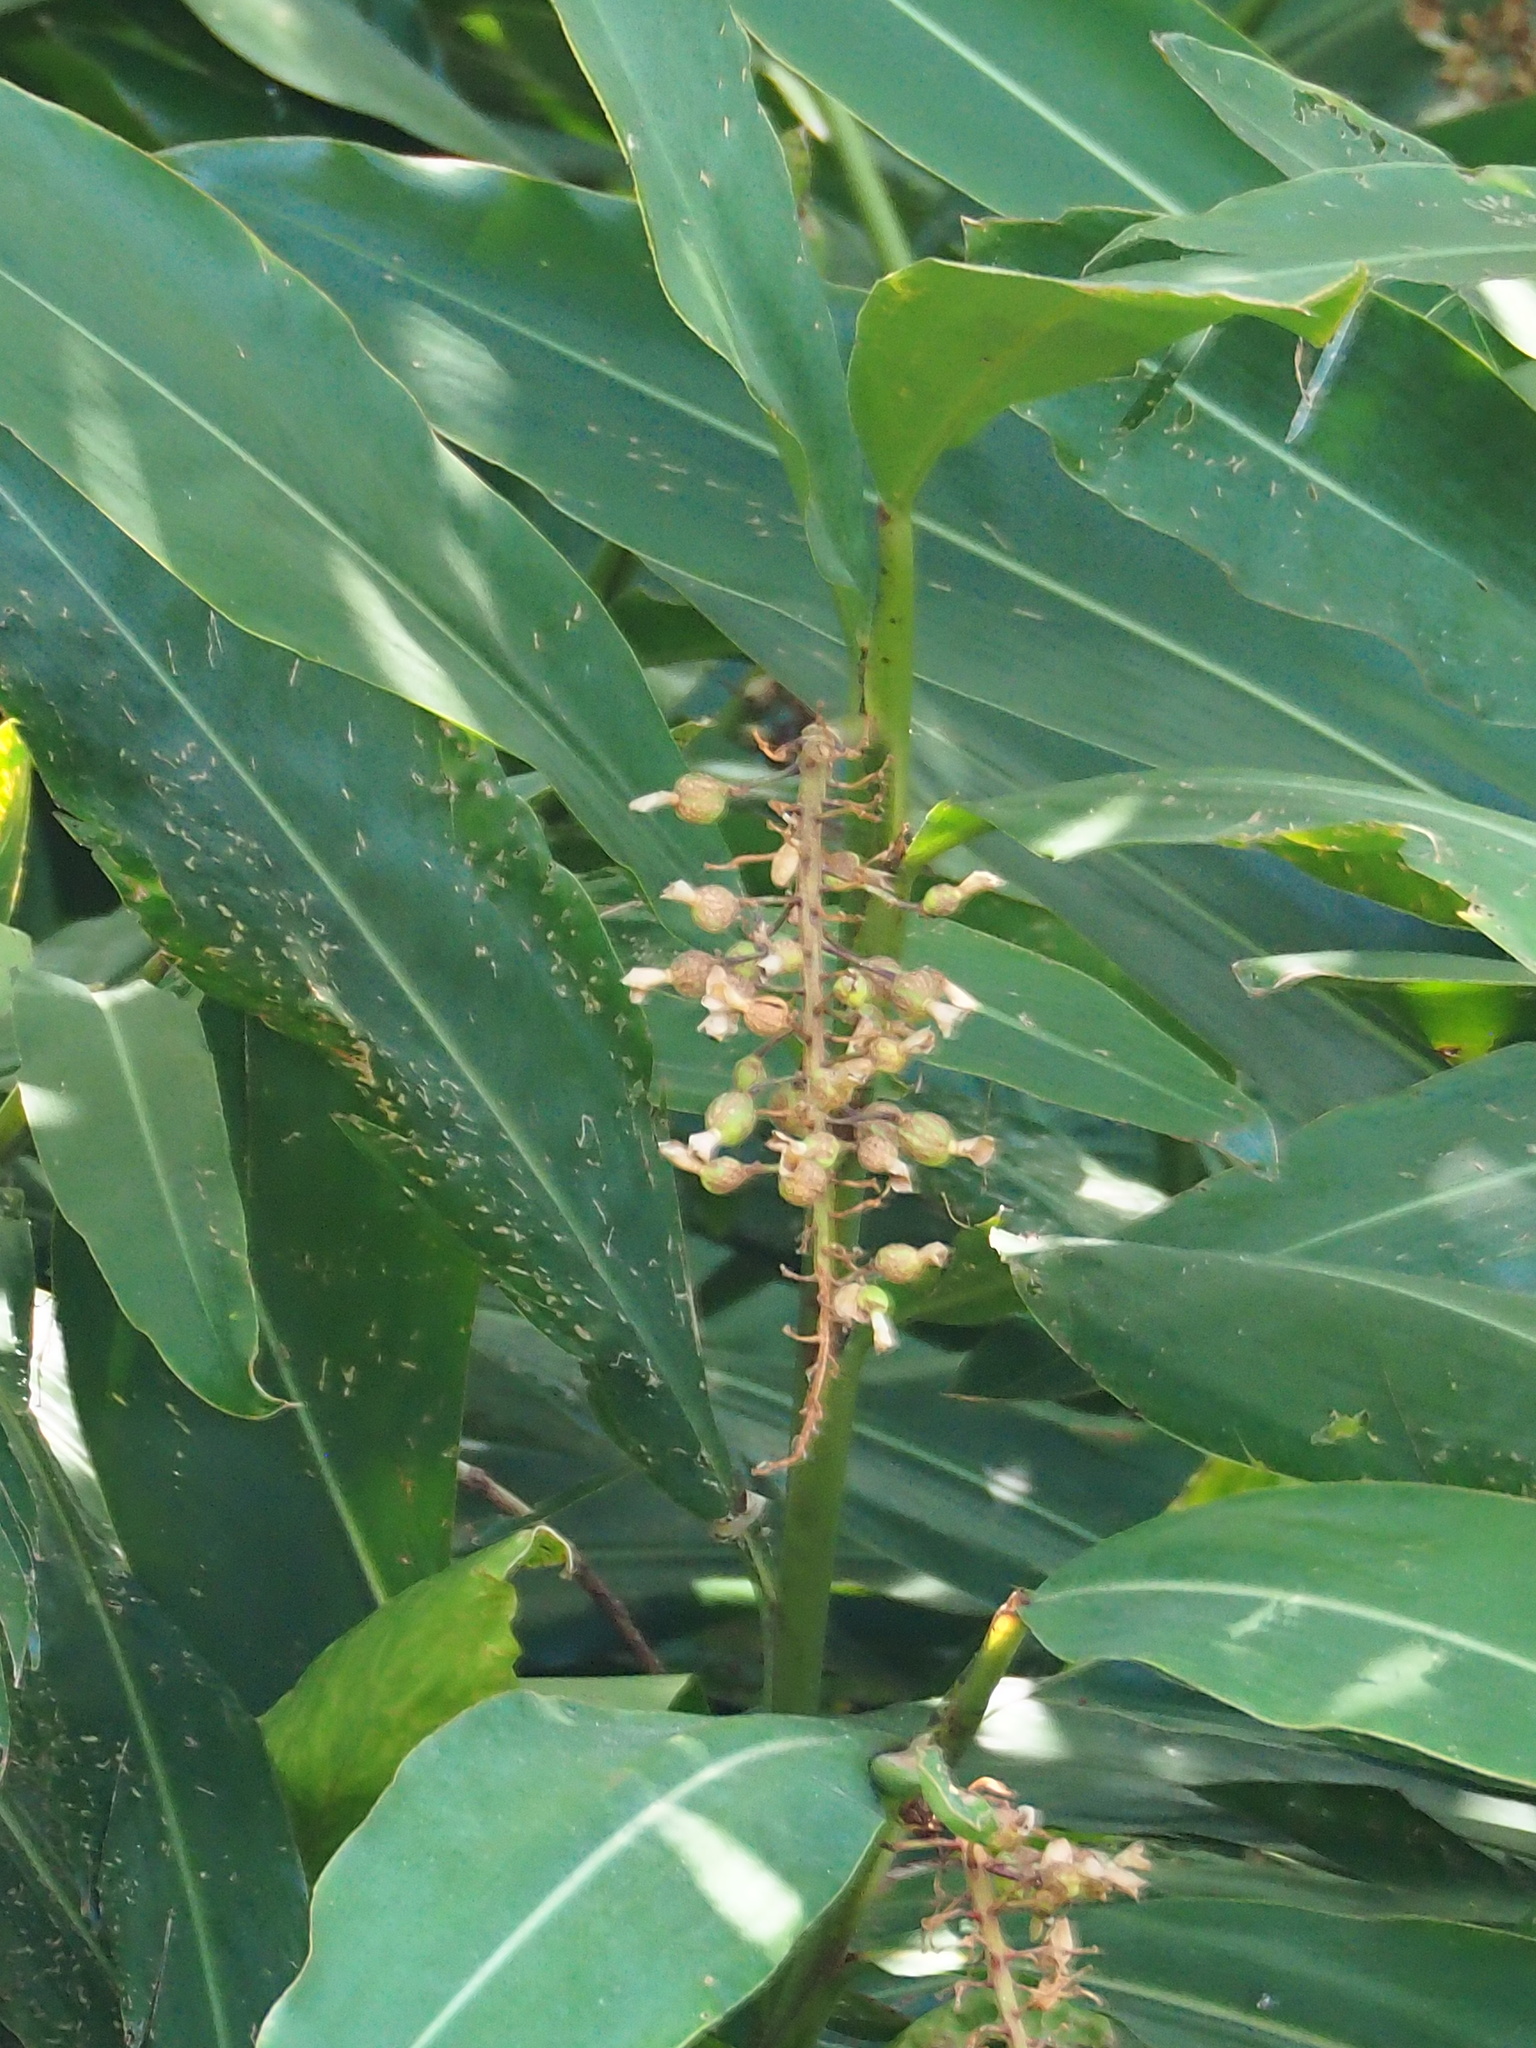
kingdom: Plantae
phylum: Tracheophyta
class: Liliopsida
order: Zingiberales
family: Zingiberaceae
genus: Alpinia
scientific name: Alpinia zerumbet
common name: Shellplant
